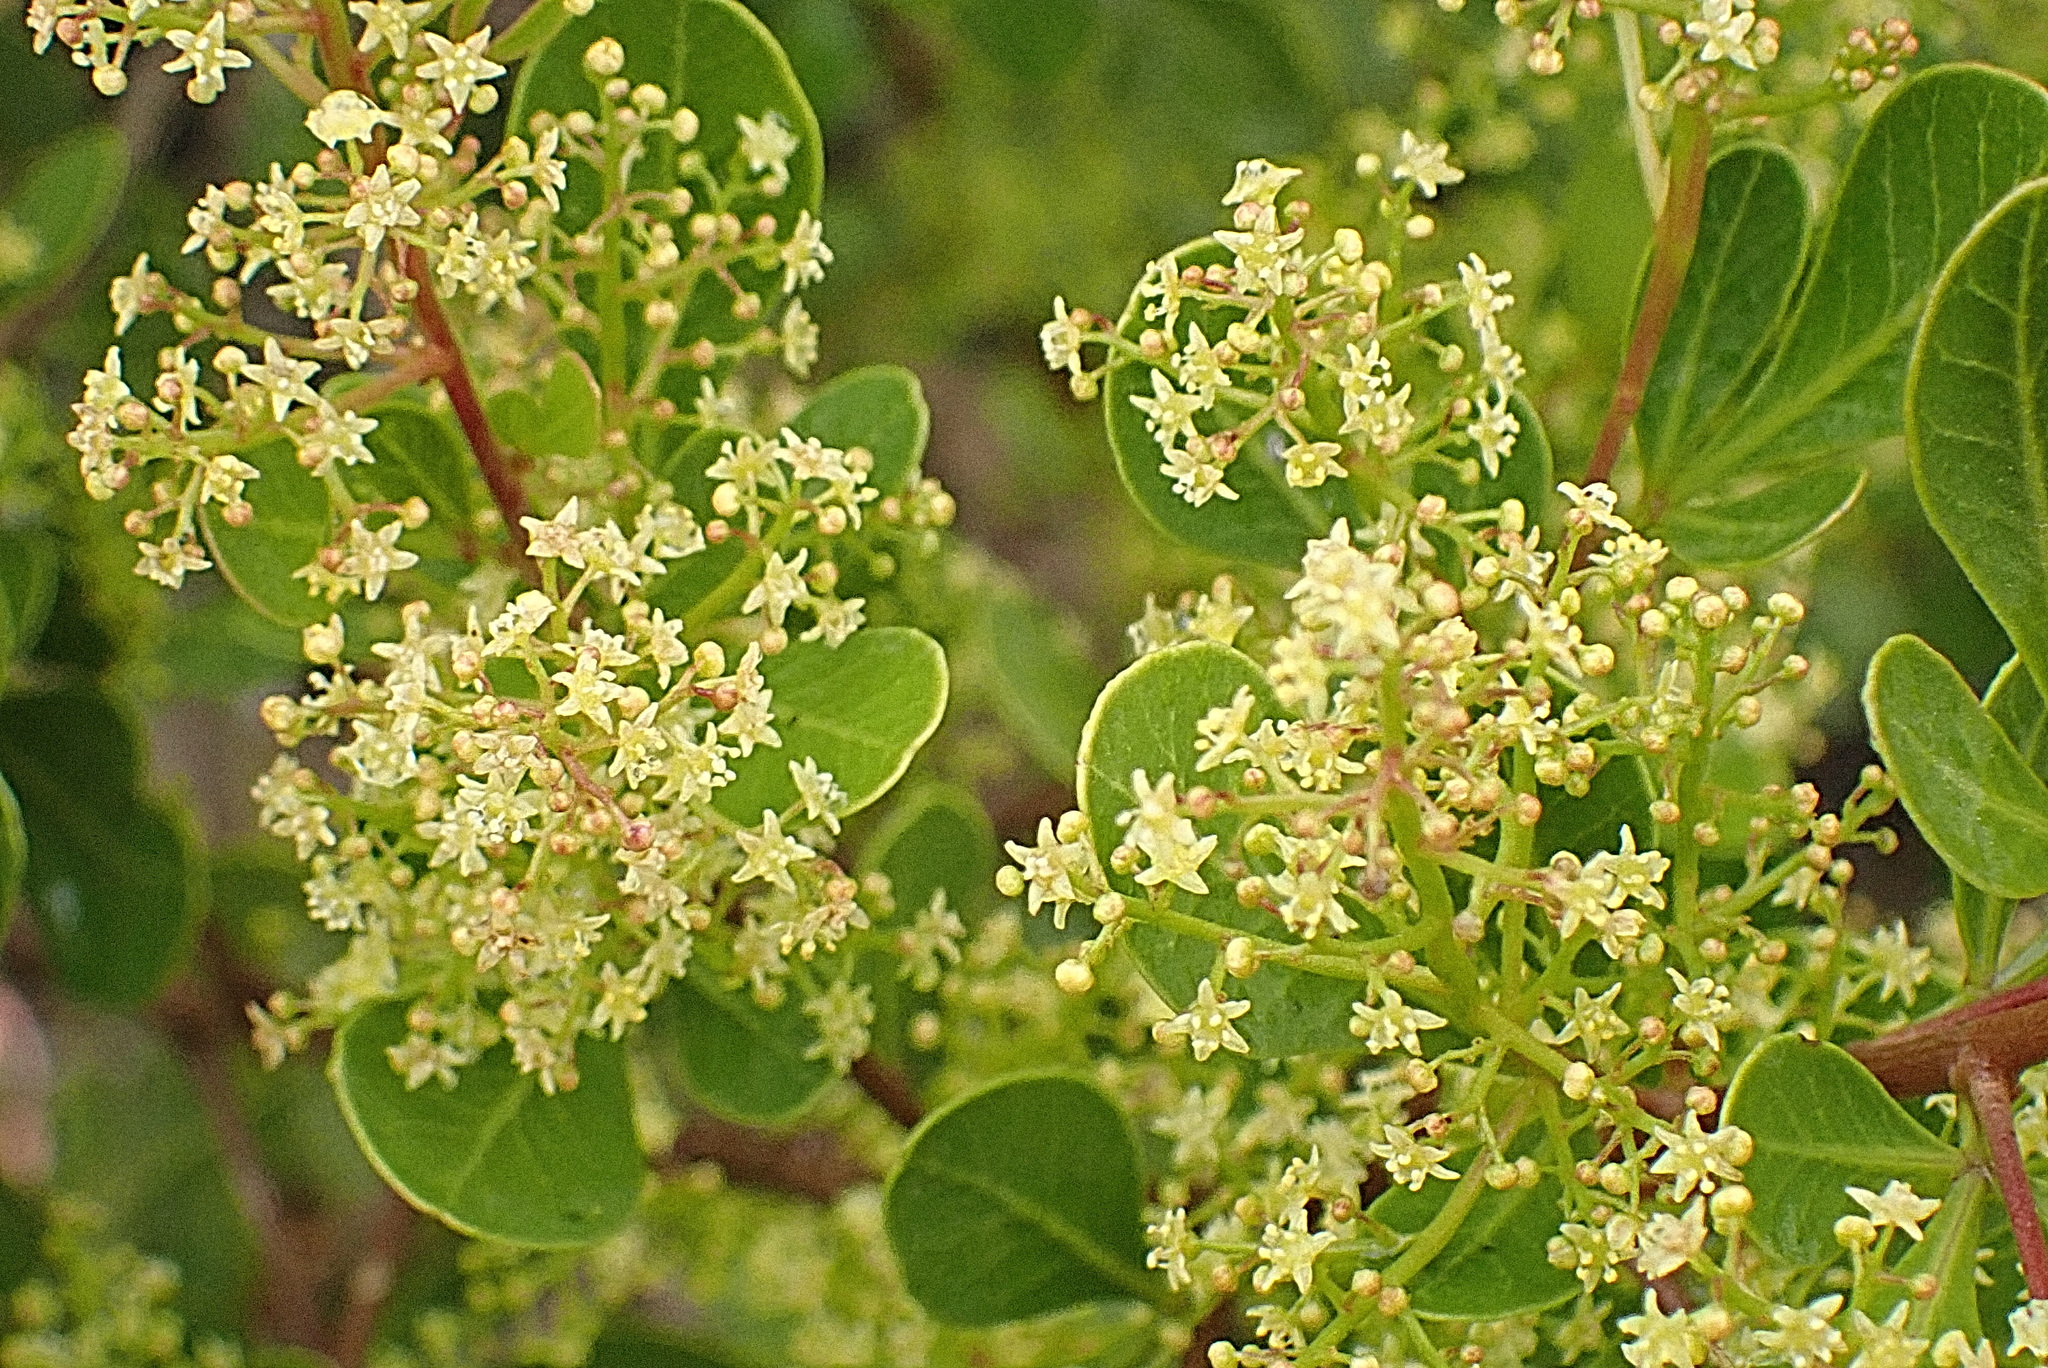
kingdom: Plantae
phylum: Tracheophyta
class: Magnoliopsida
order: Sapindales
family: Anacardiaceae
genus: Searsia
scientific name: Searsia lucida
